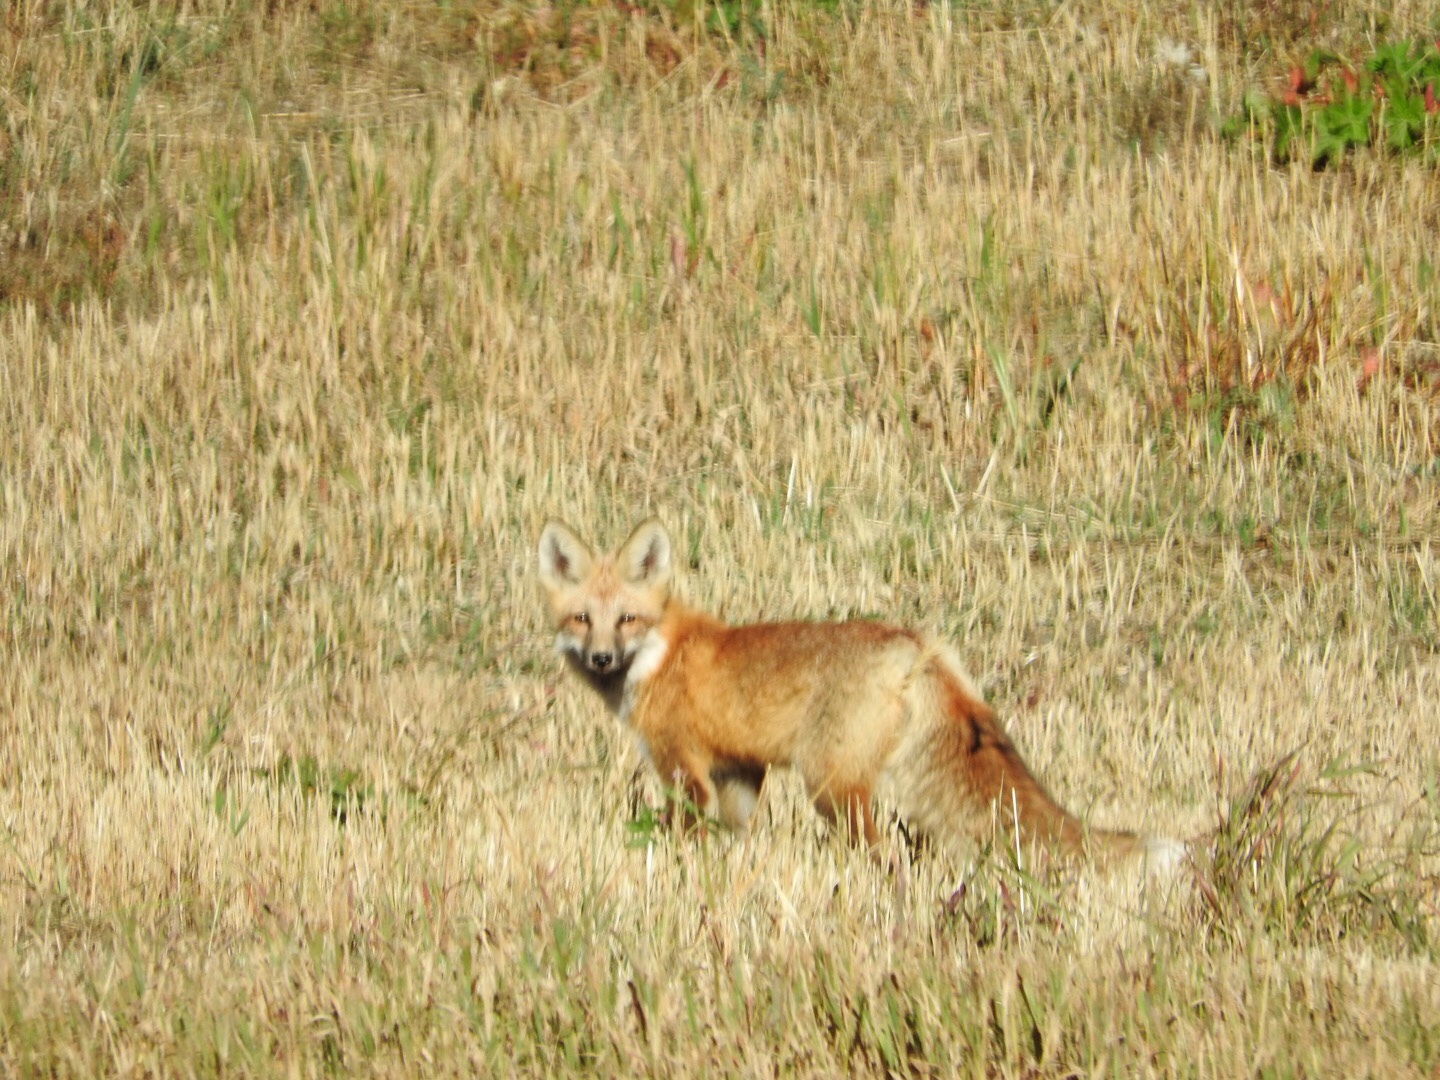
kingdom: Animalia
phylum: Chordata
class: Mammalia
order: Carnivora
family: Canidae
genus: Vulpes
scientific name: Vulpes vulpes
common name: Red fox
